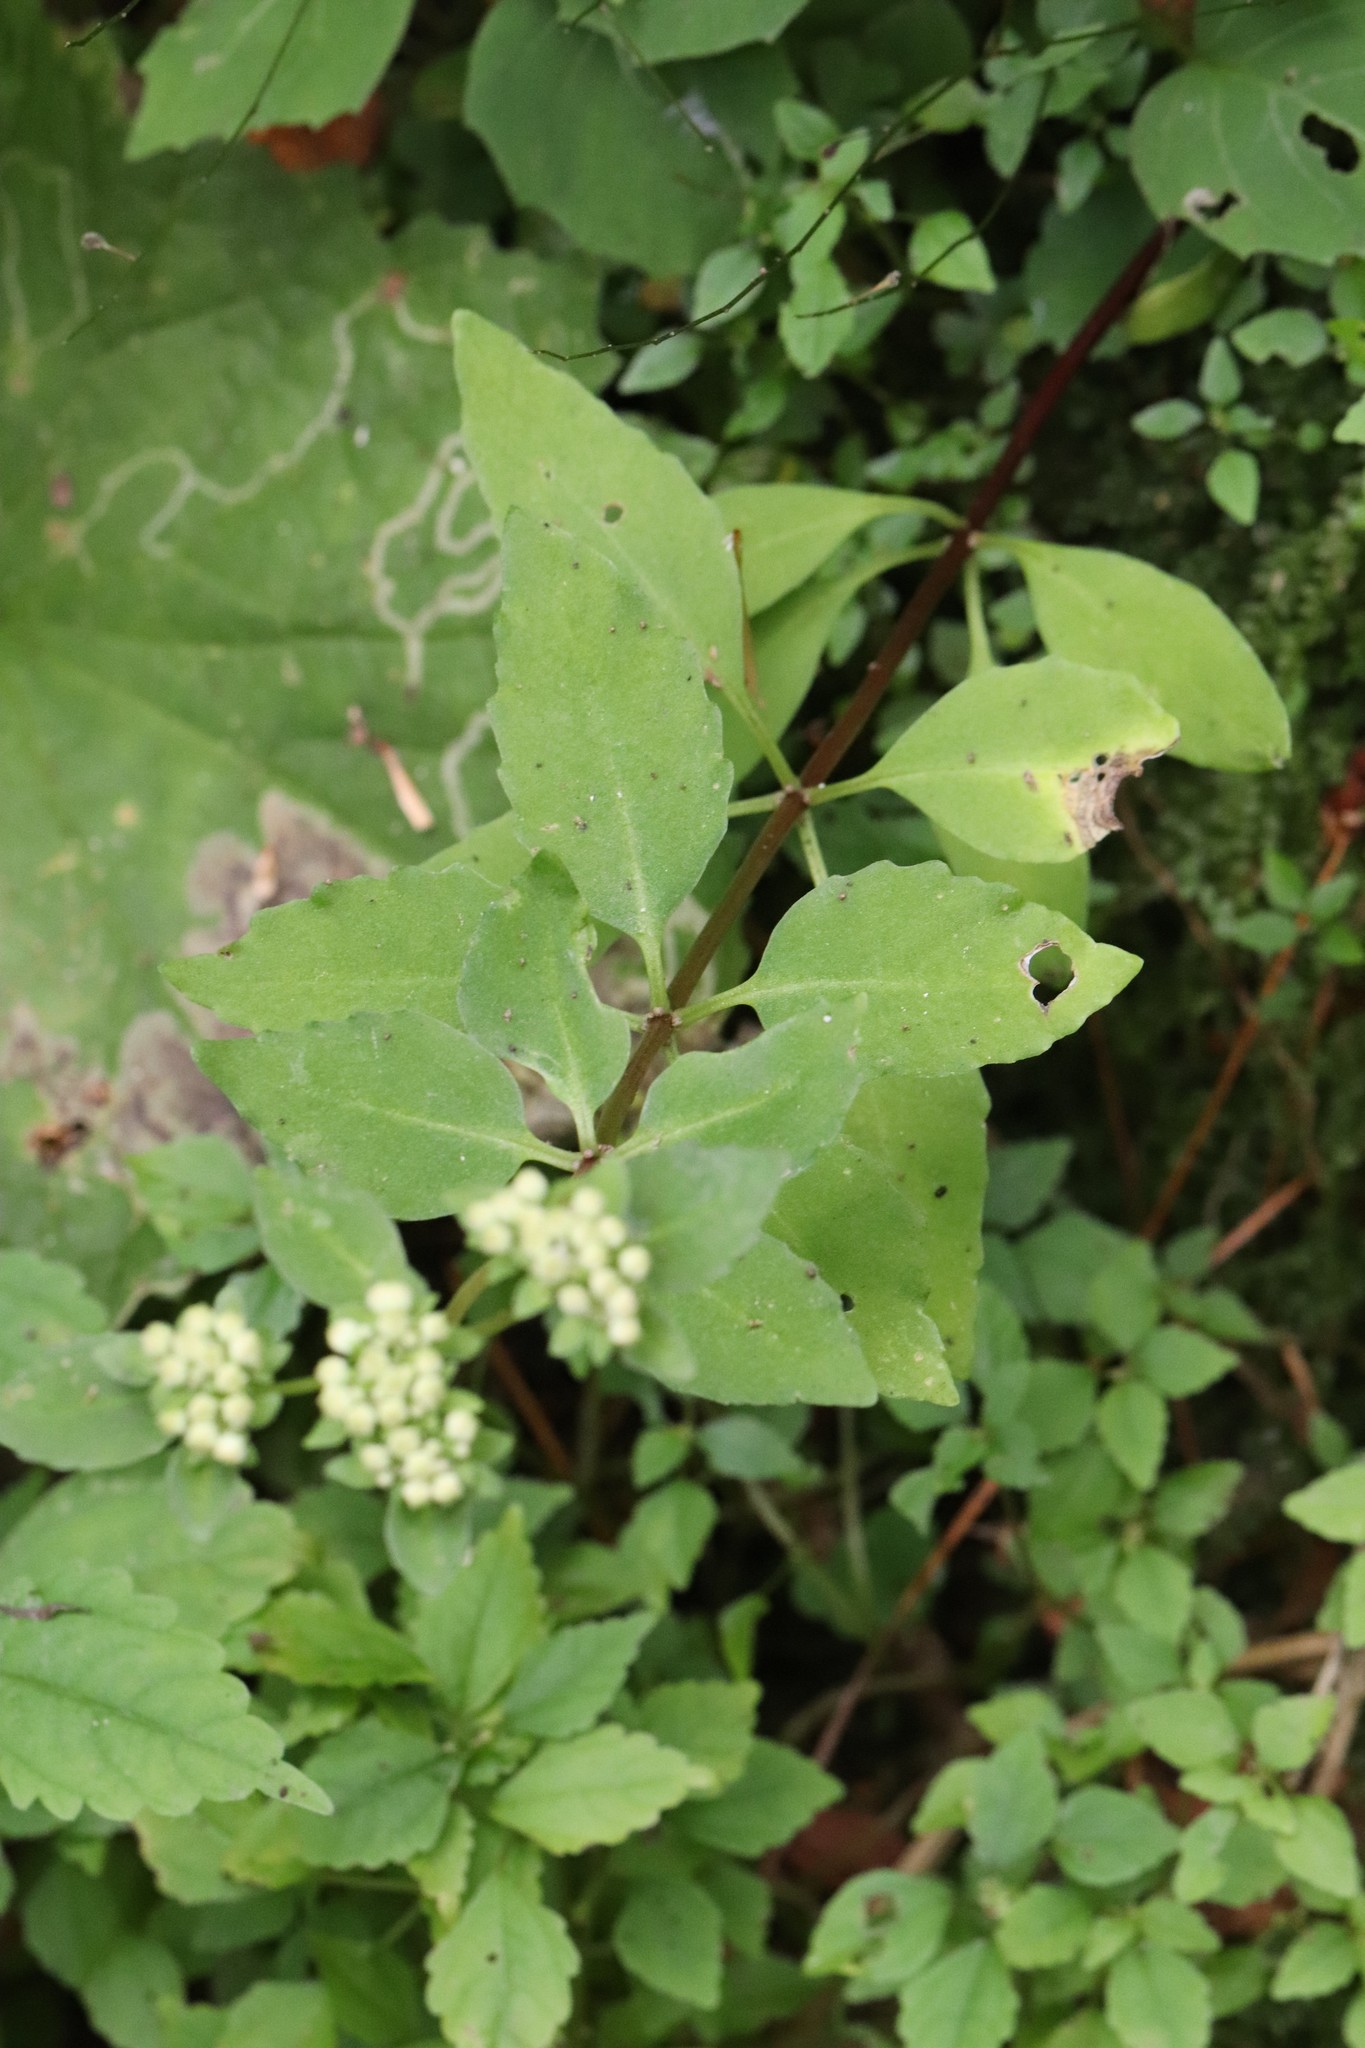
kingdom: Plantae
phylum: Tracheophyta
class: Magnoliopsida
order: Saxifragales
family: Crassulaceae
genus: Hylotelephium
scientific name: Hylotelephium viviparum
